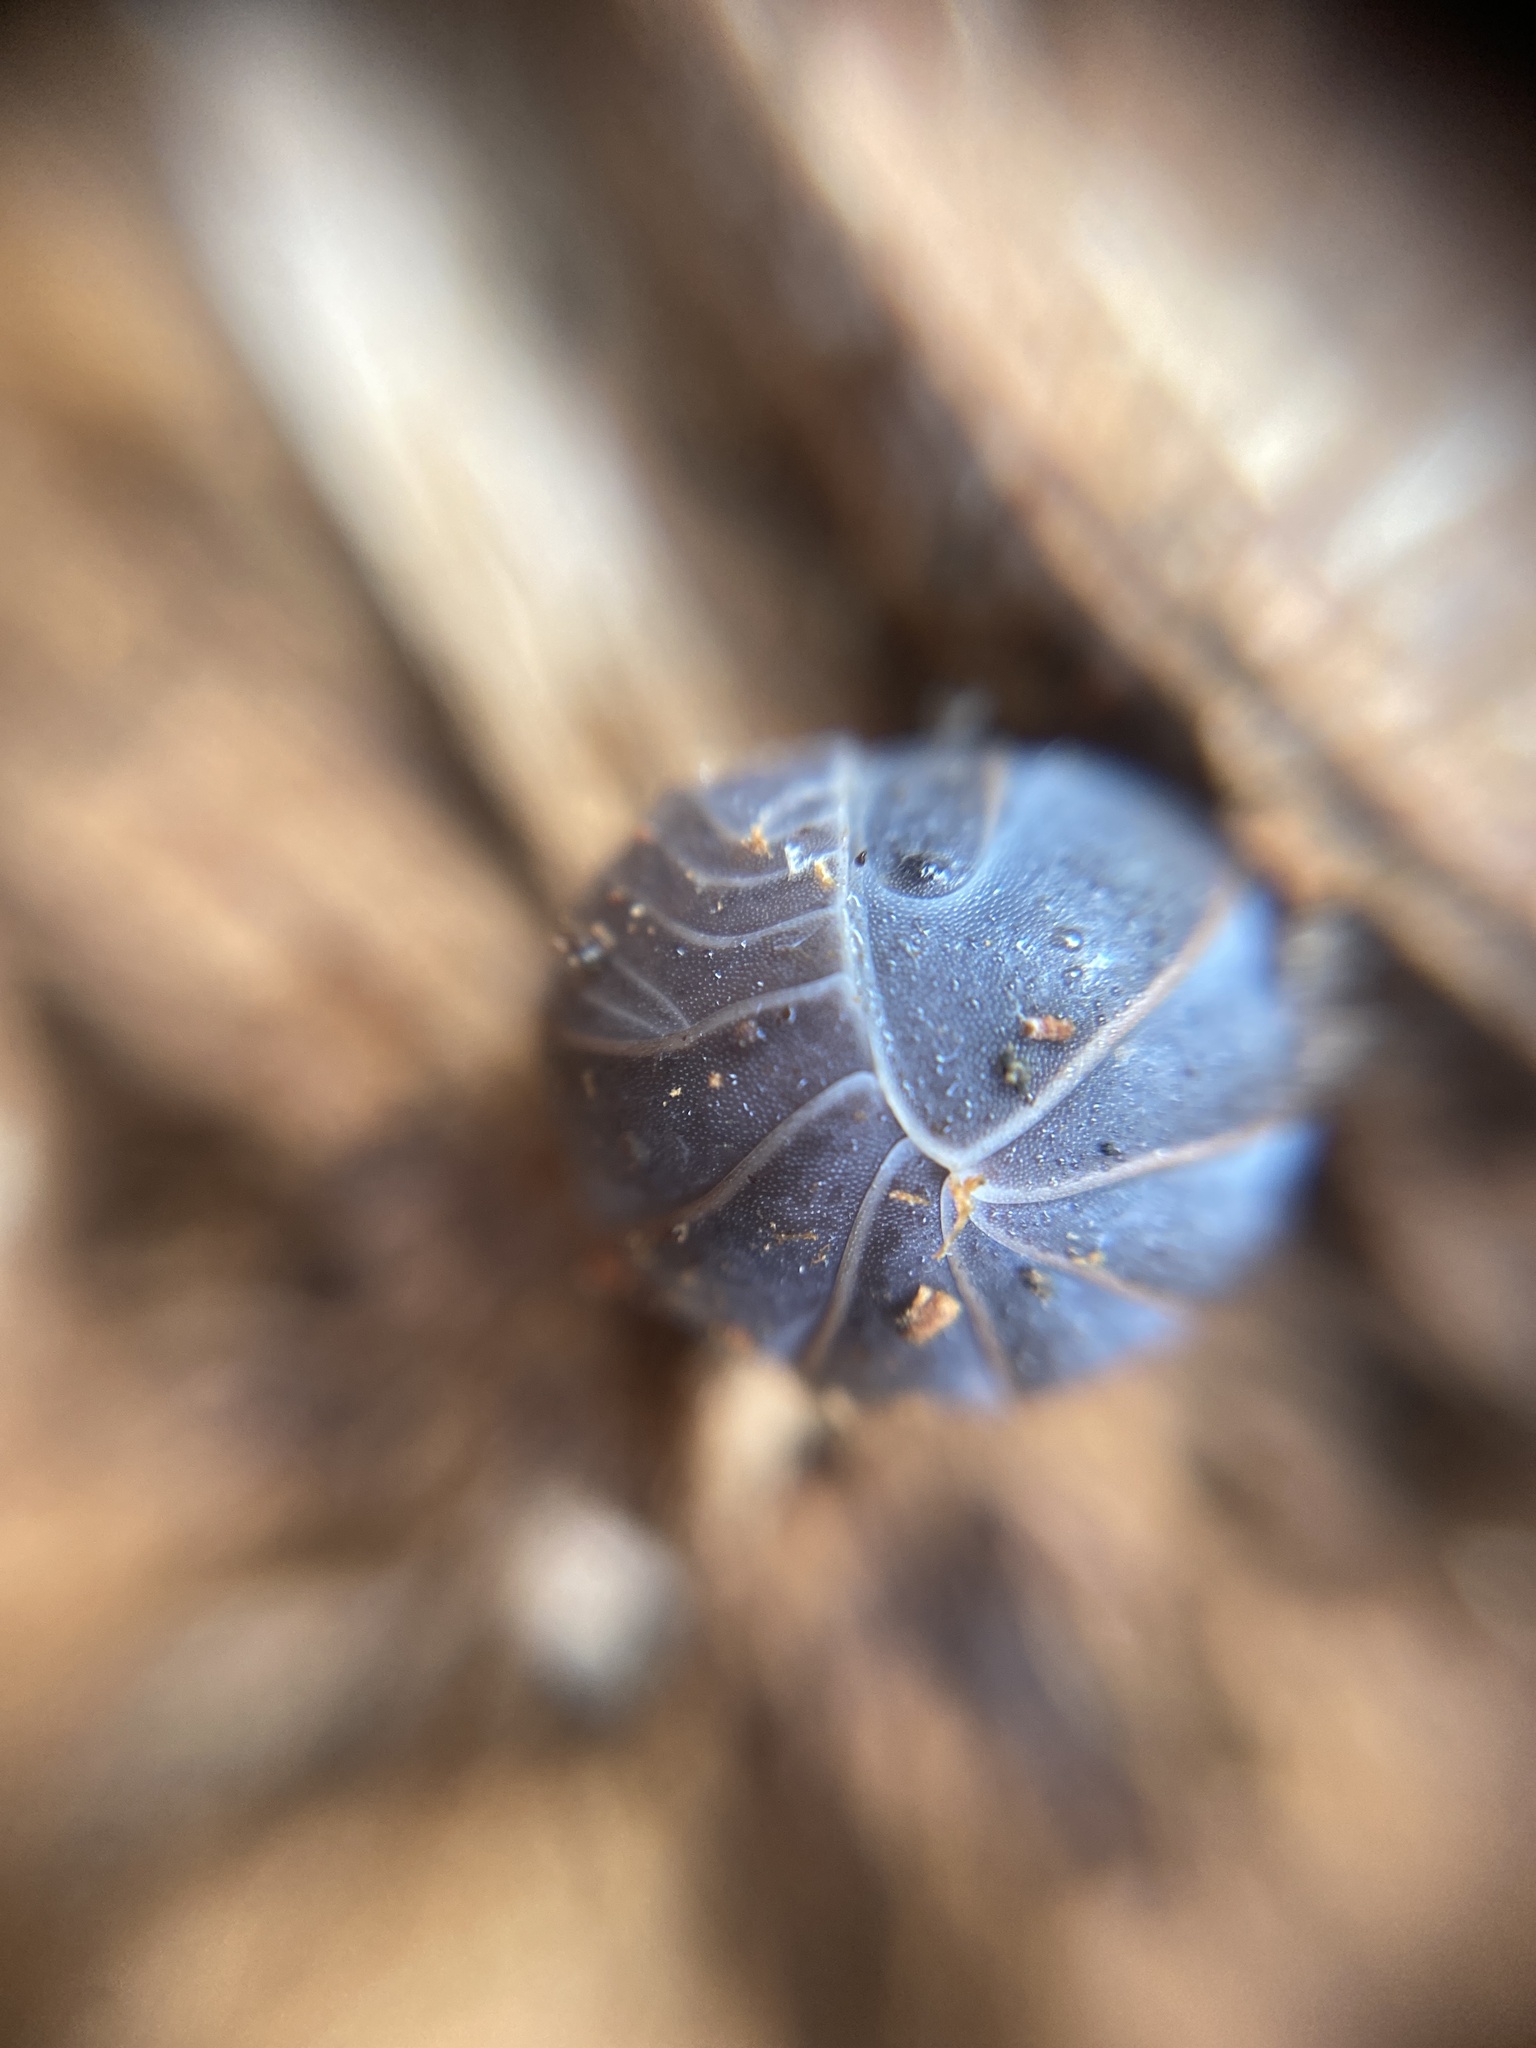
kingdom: Animalia
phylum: Arthropoda
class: Malacostraca
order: Isopoda
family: Armadillidae
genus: Armadillo
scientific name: Armadillo officinalis
